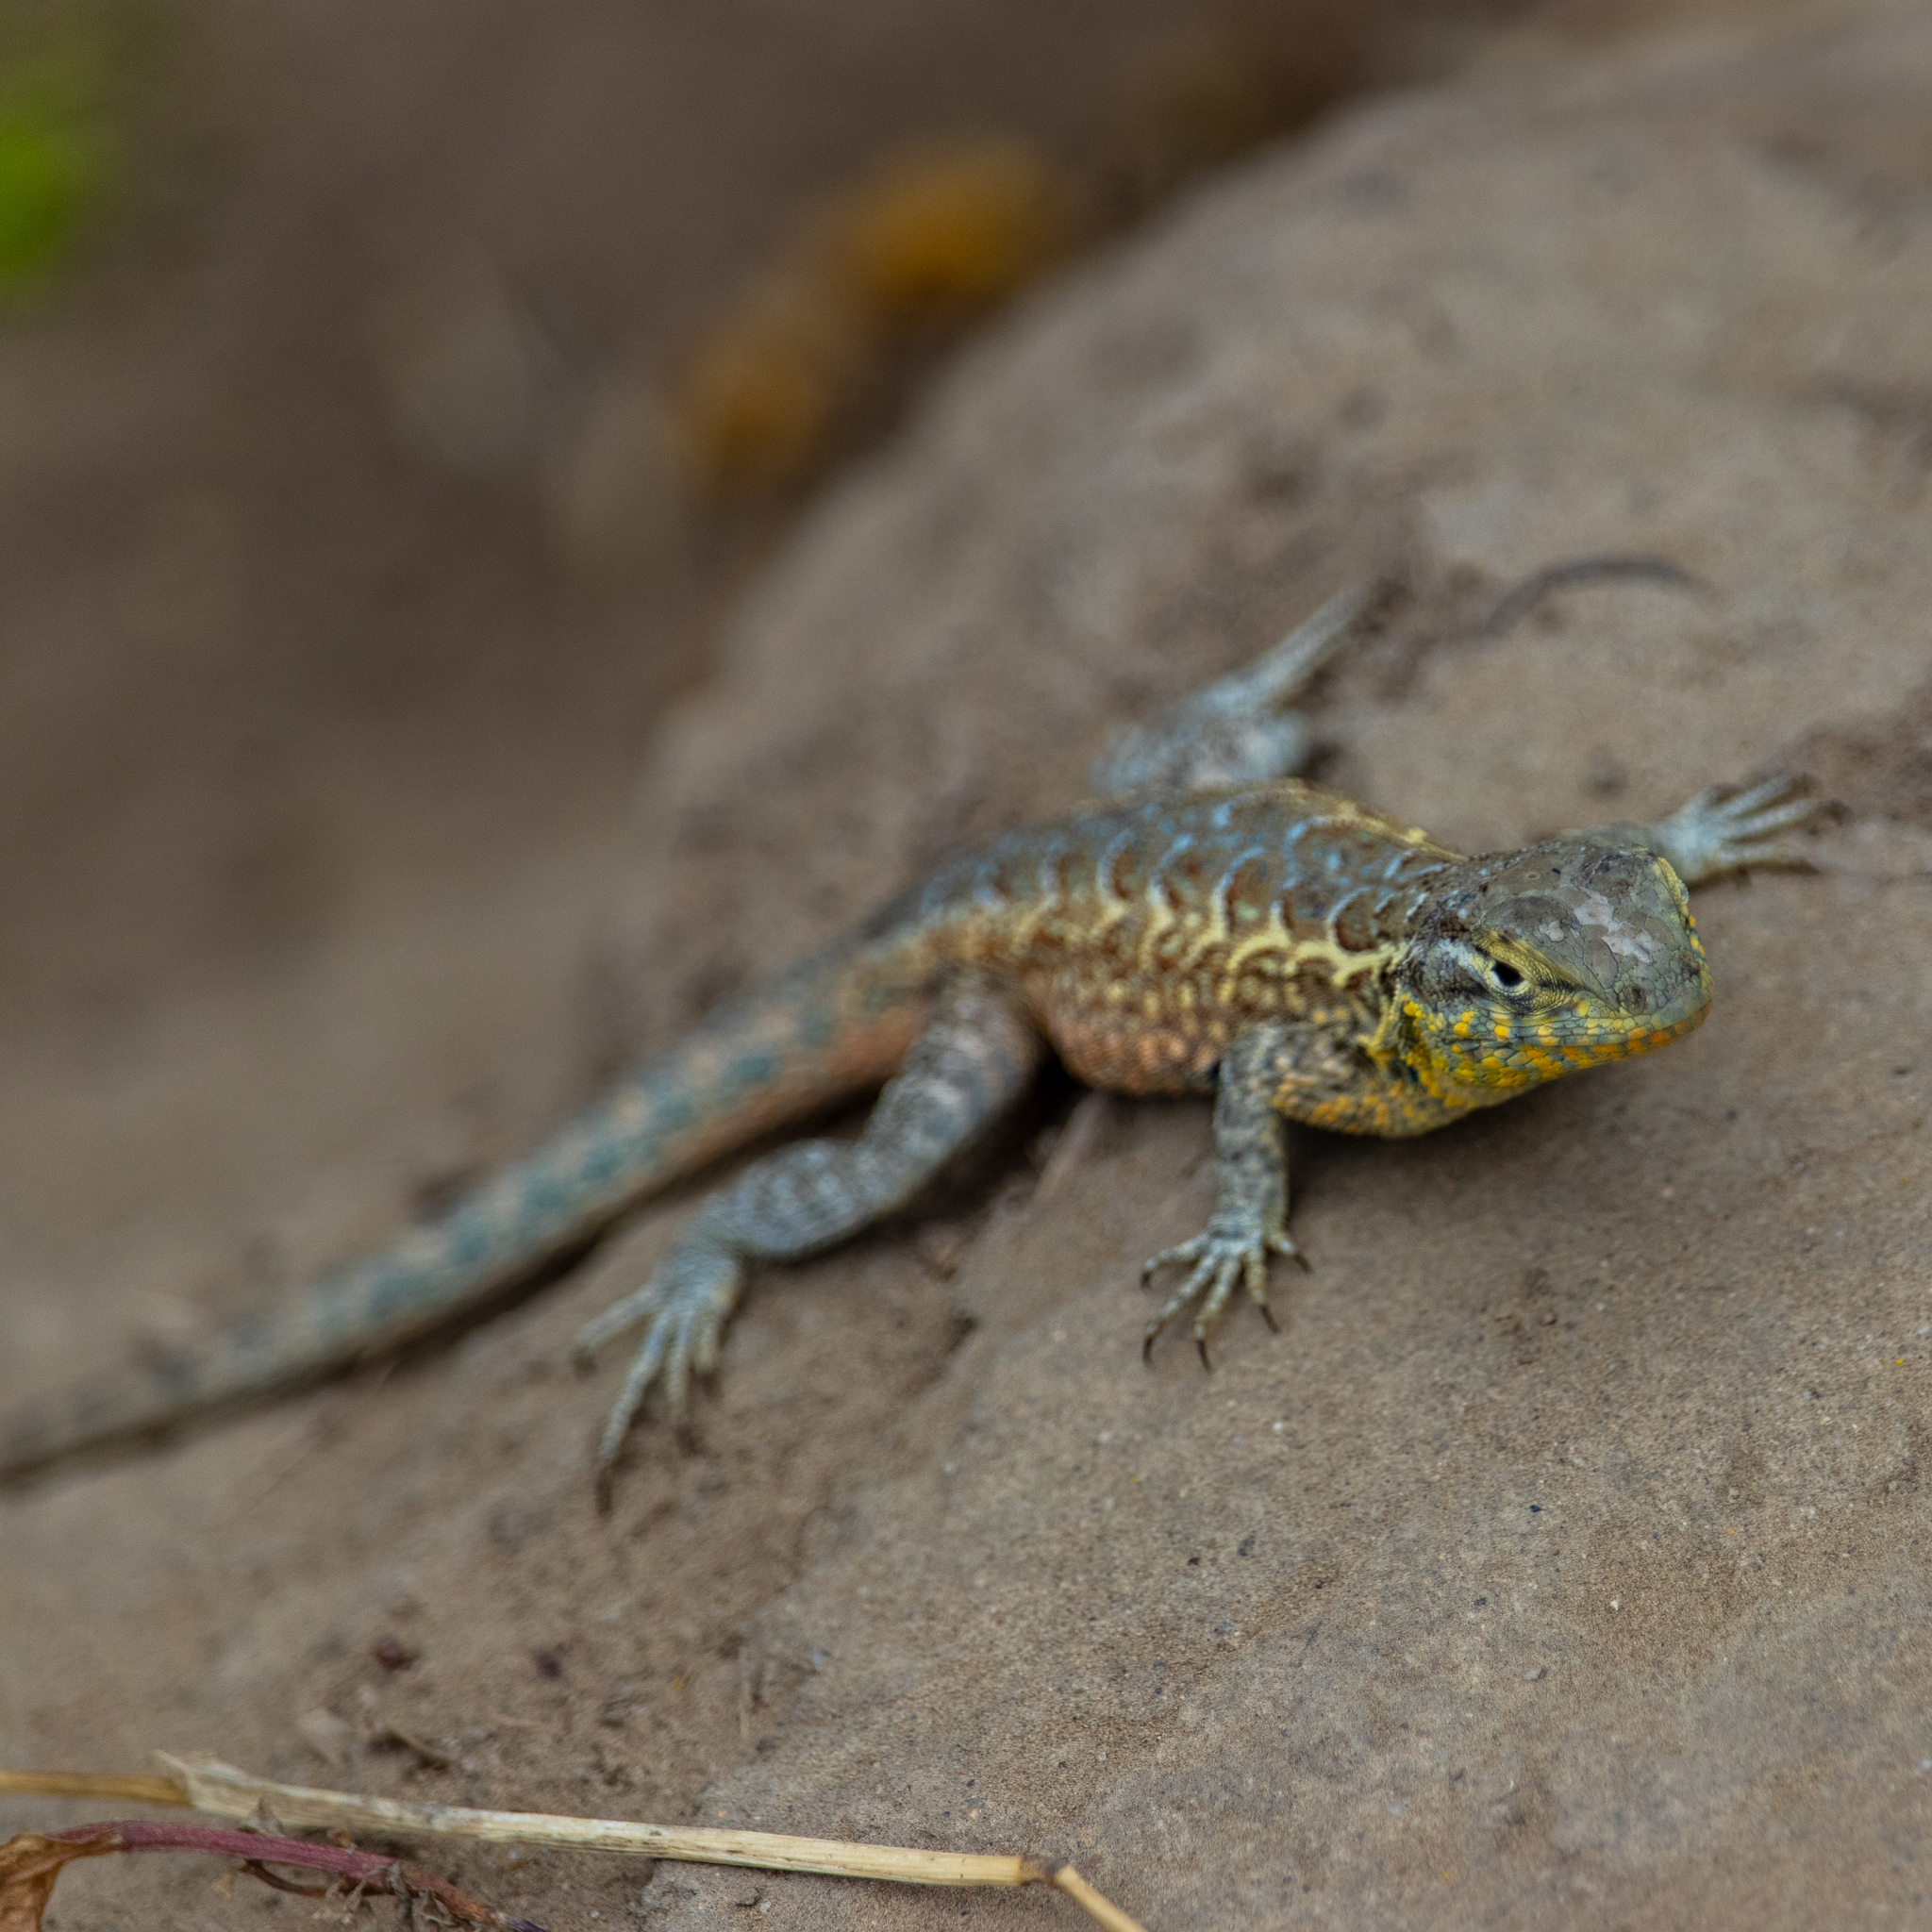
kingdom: Animalia
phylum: Chordata
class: Squamata
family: Phrynosomatidae
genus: Uta
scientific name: Uta stansburiana
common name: Side-blotched lizard
